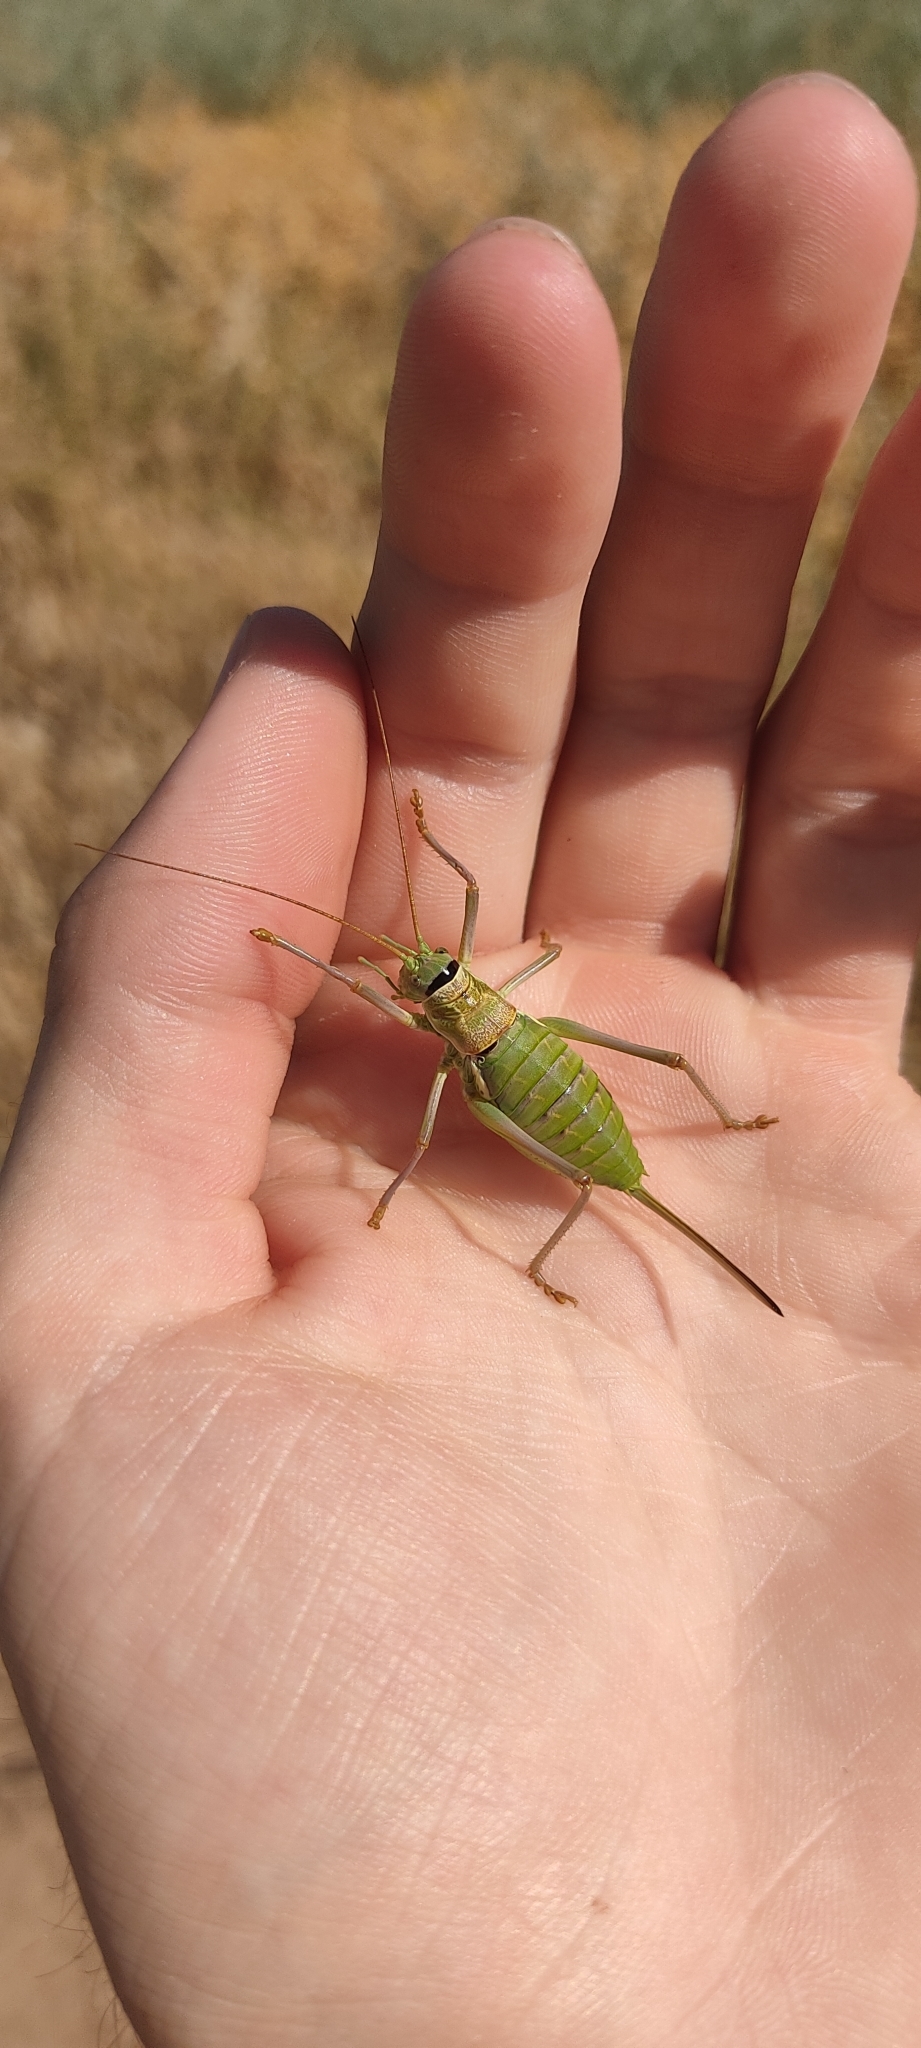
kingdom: Animalia
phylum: Arthropoda
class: Insecta
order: Orthoptera
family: Tettigoniidae
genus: Ephippiger
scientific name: Ephippiger diurnus
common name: Western saddle bush-cricket
